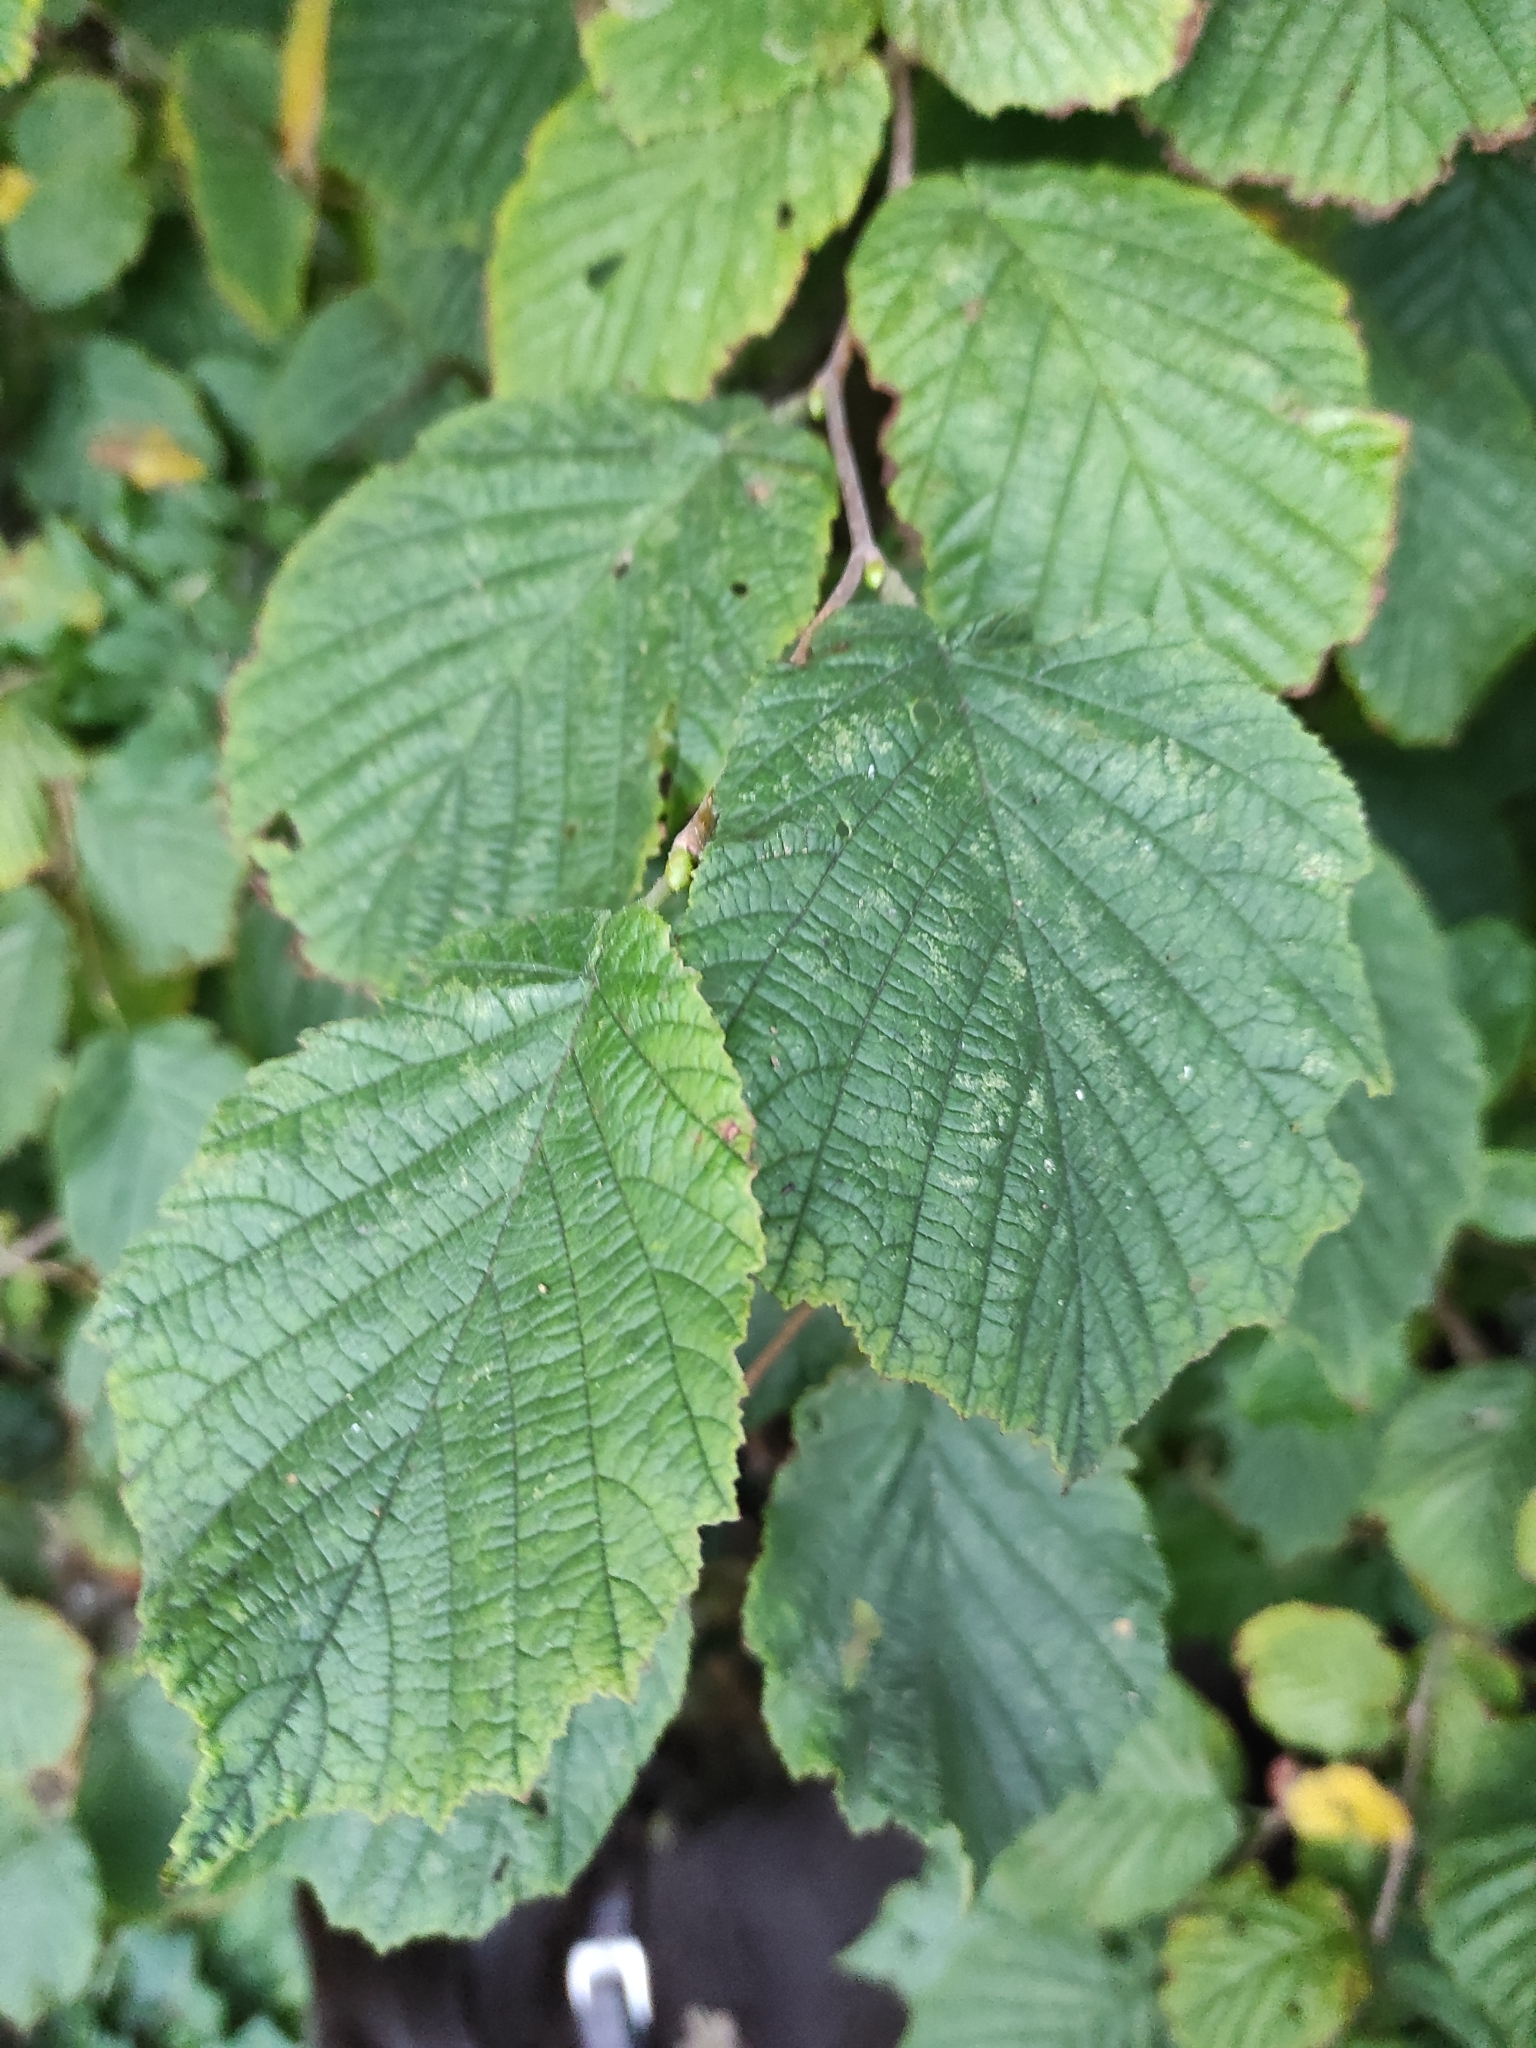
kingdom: Plantae
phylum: Tracheophyta
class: Magnoliopsida
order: Fagales
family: Betulaceae
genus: Corylus
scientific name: Corylus avellana
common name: European hazel
